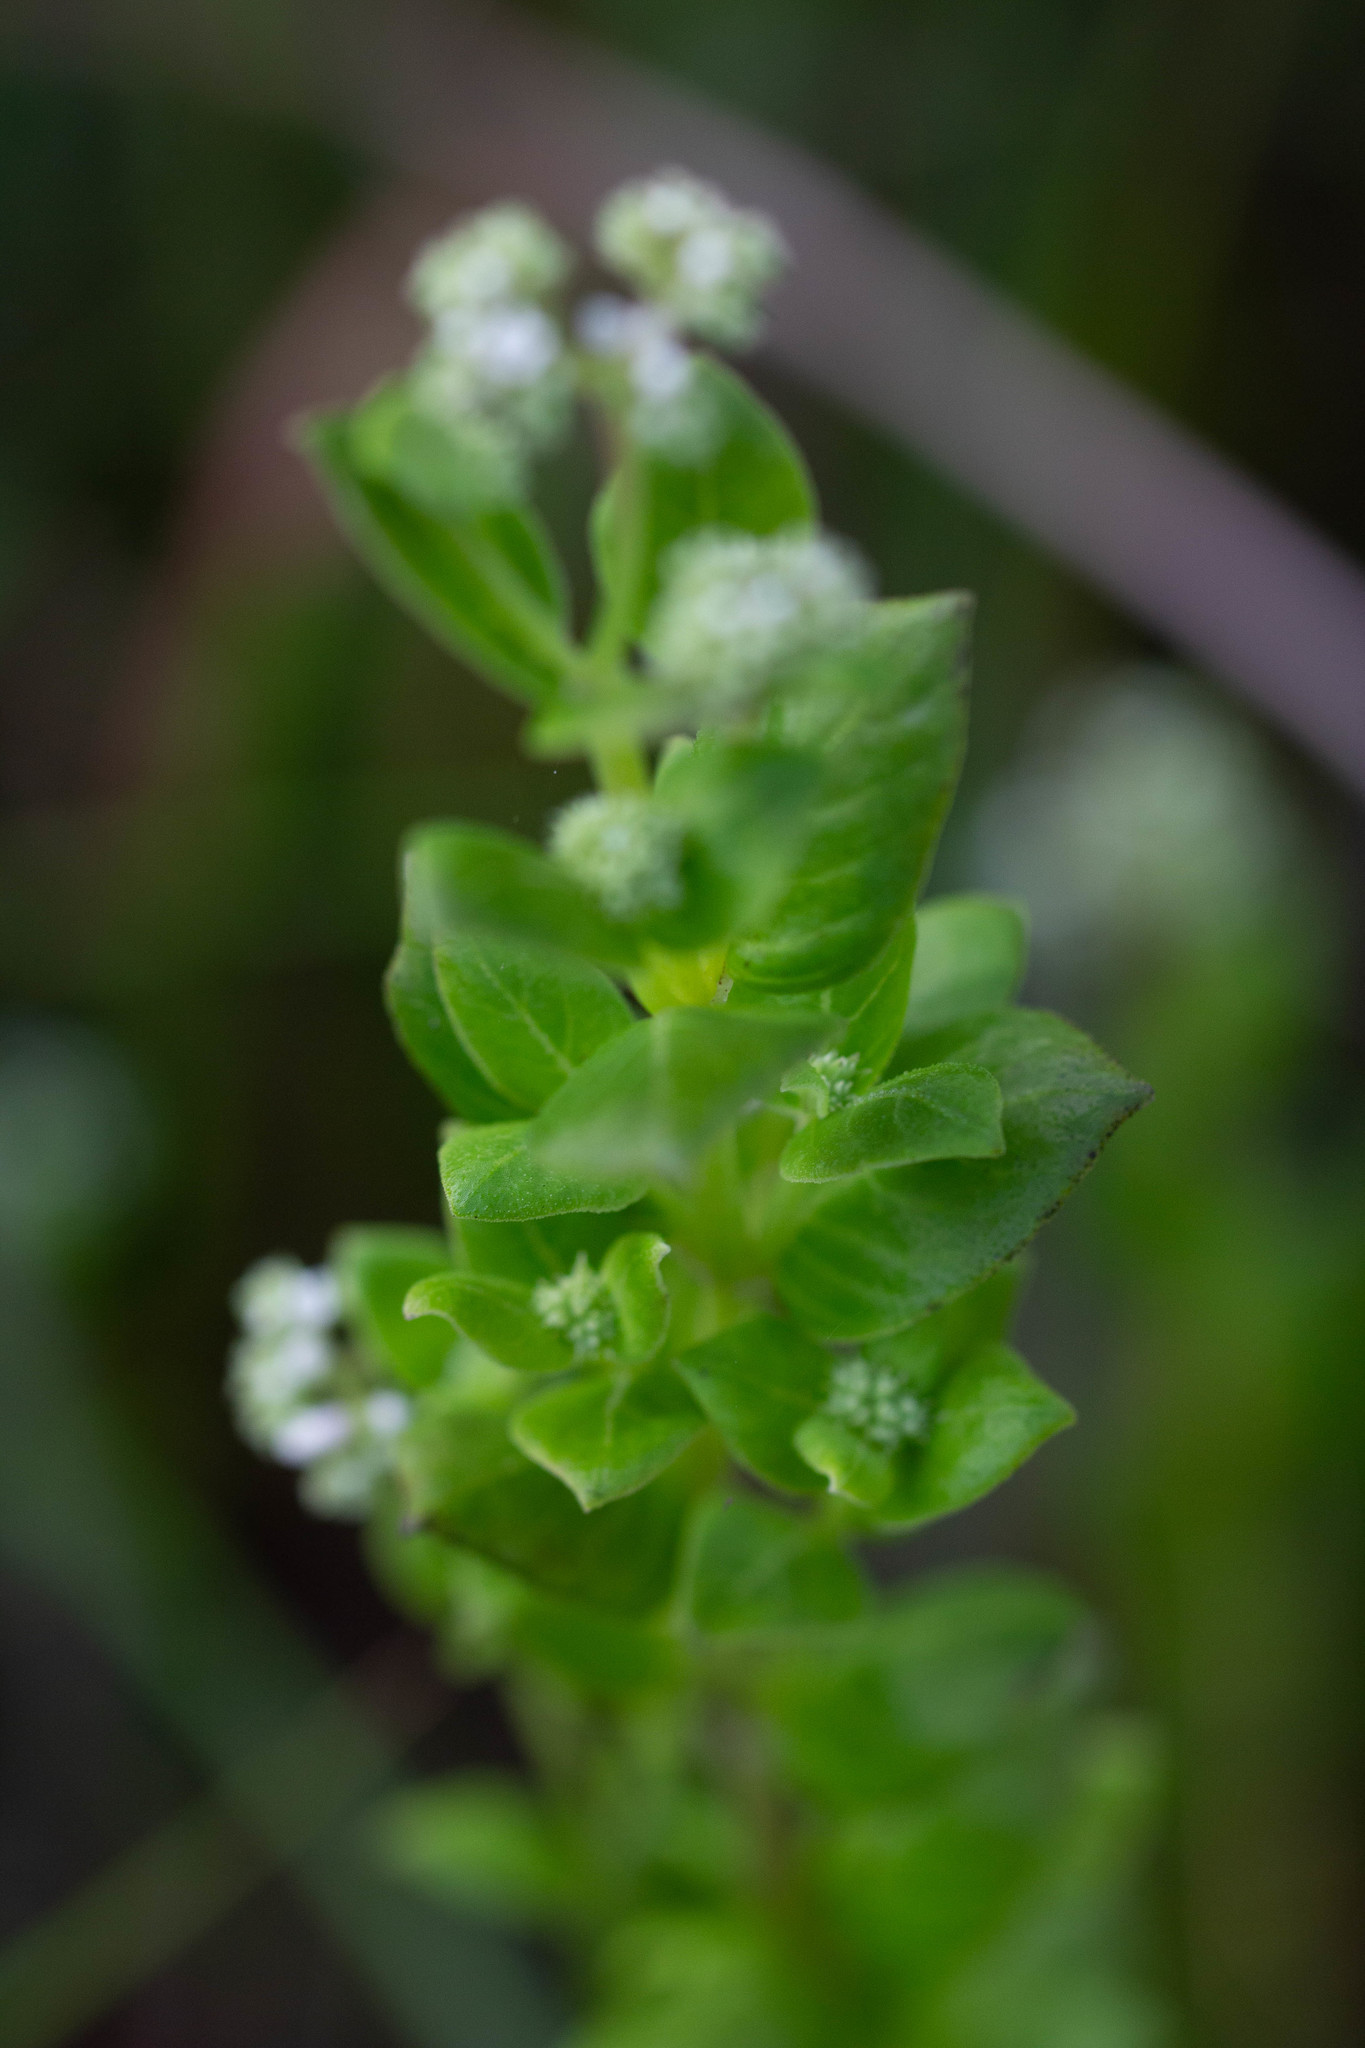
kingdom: Plantae
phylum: Tracheophyta
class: Magnoliopsida
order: Gentianales
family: Loganiaceae
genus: Mitreola
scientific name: Mitreola sessilifolia
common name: Swamp hornpod
